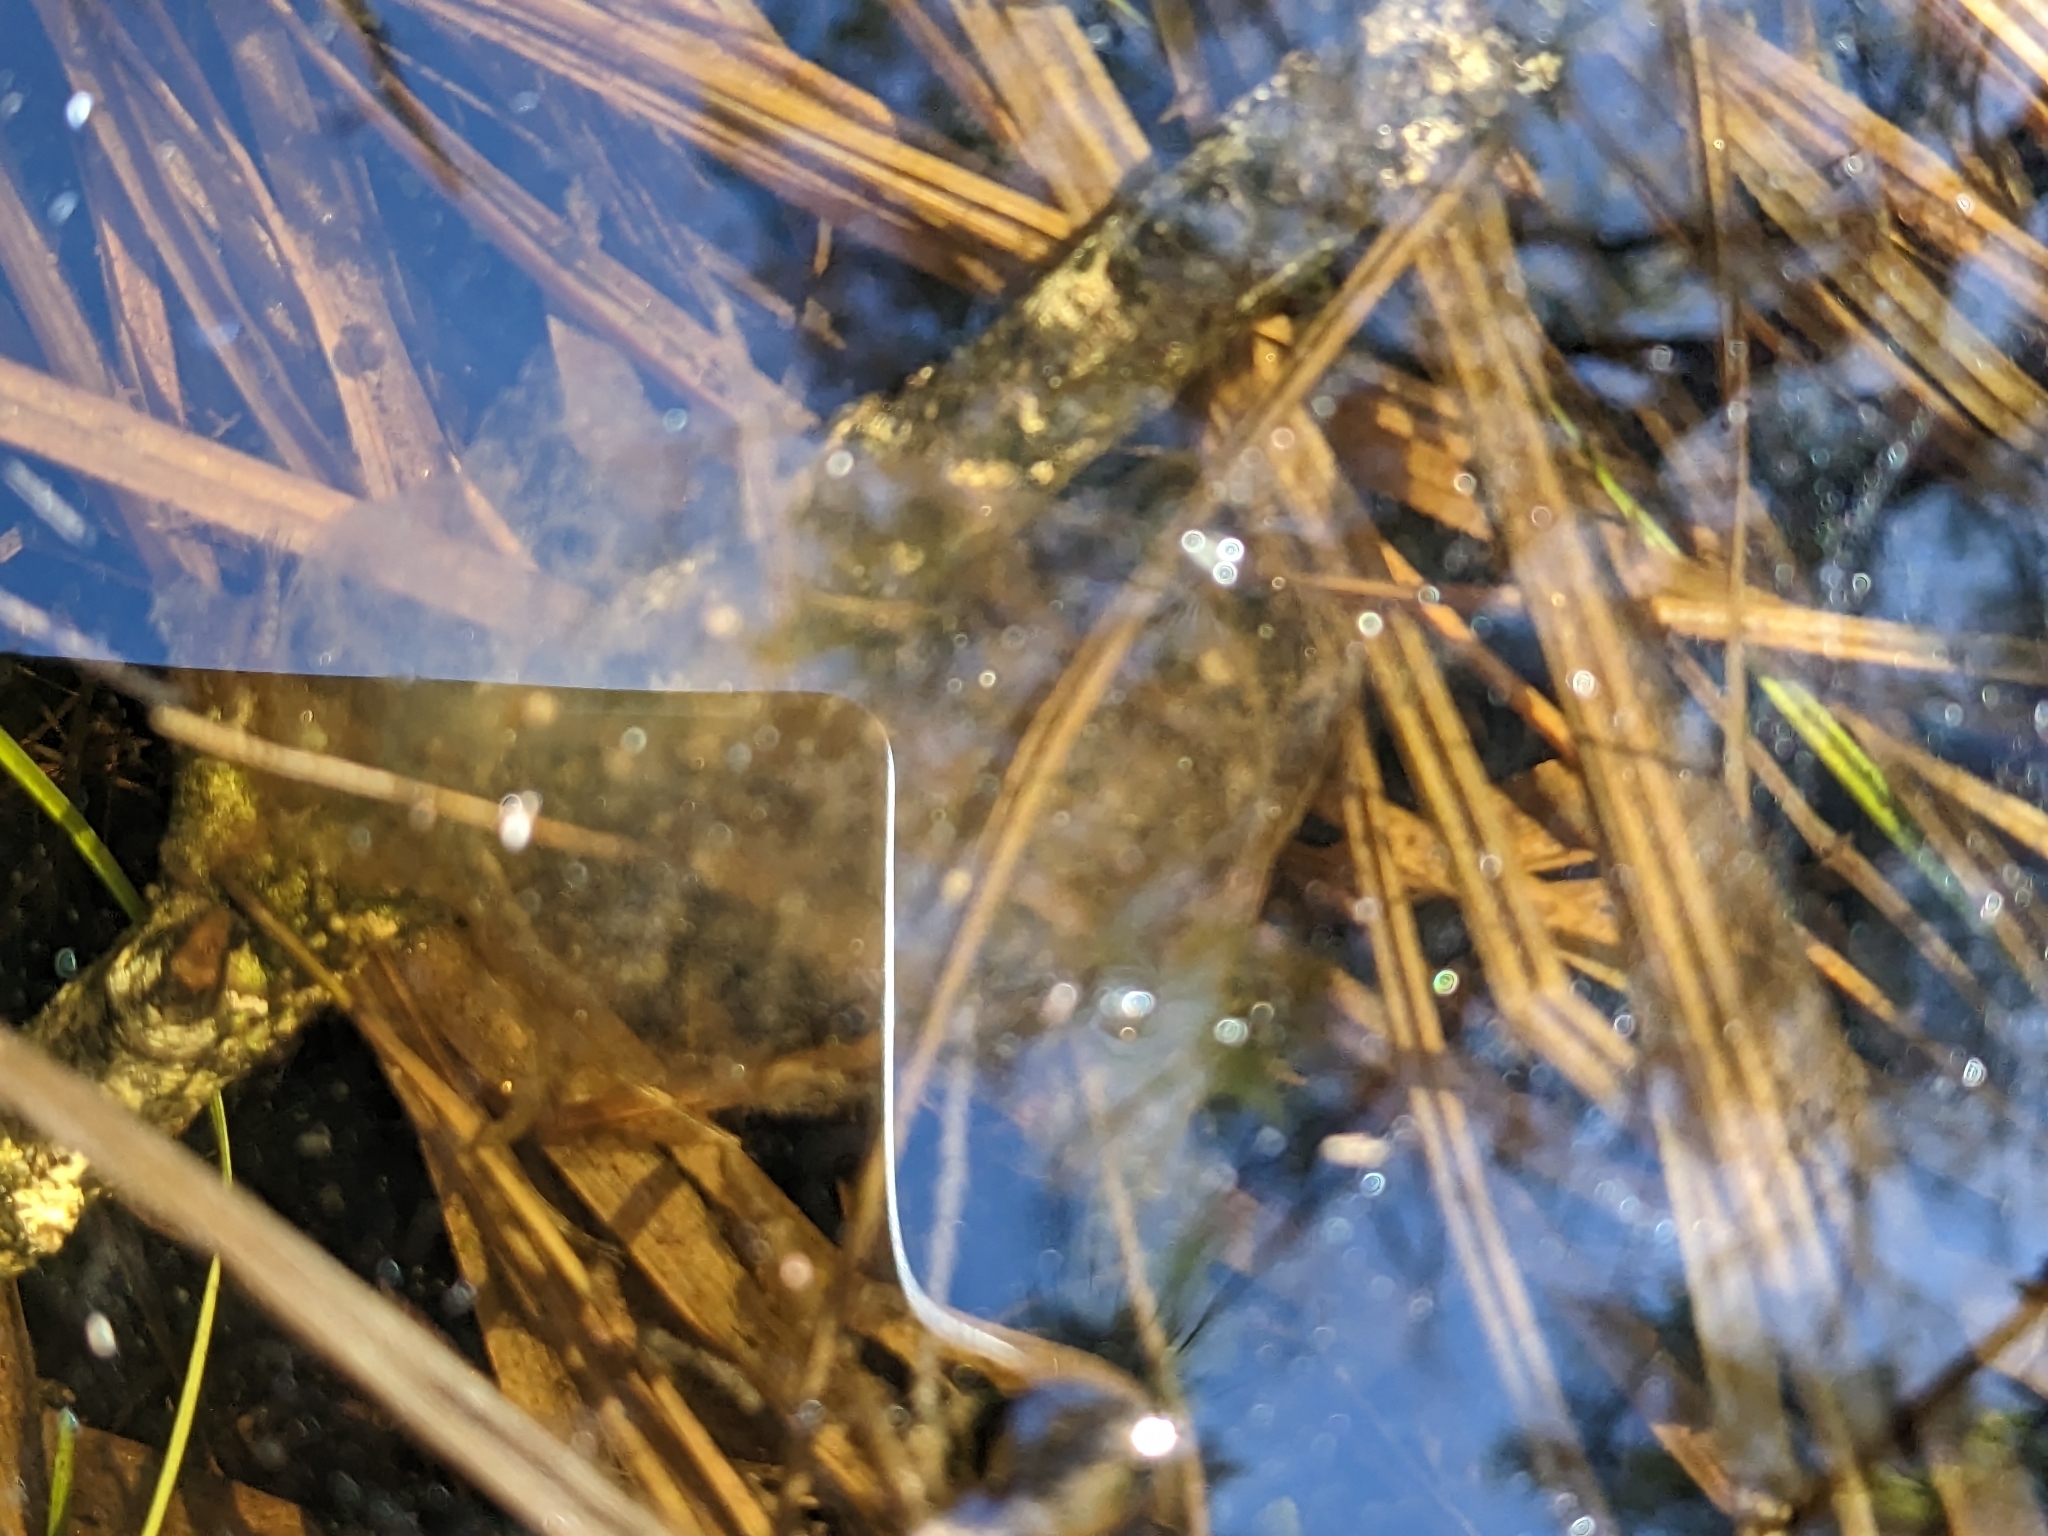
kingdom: Animalia
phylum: Chordata
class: Amphibia
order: Caudata
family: Ambystomatidae
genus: Ambystoma
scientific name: Ambystoma maculatum
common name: Spotted salamander
